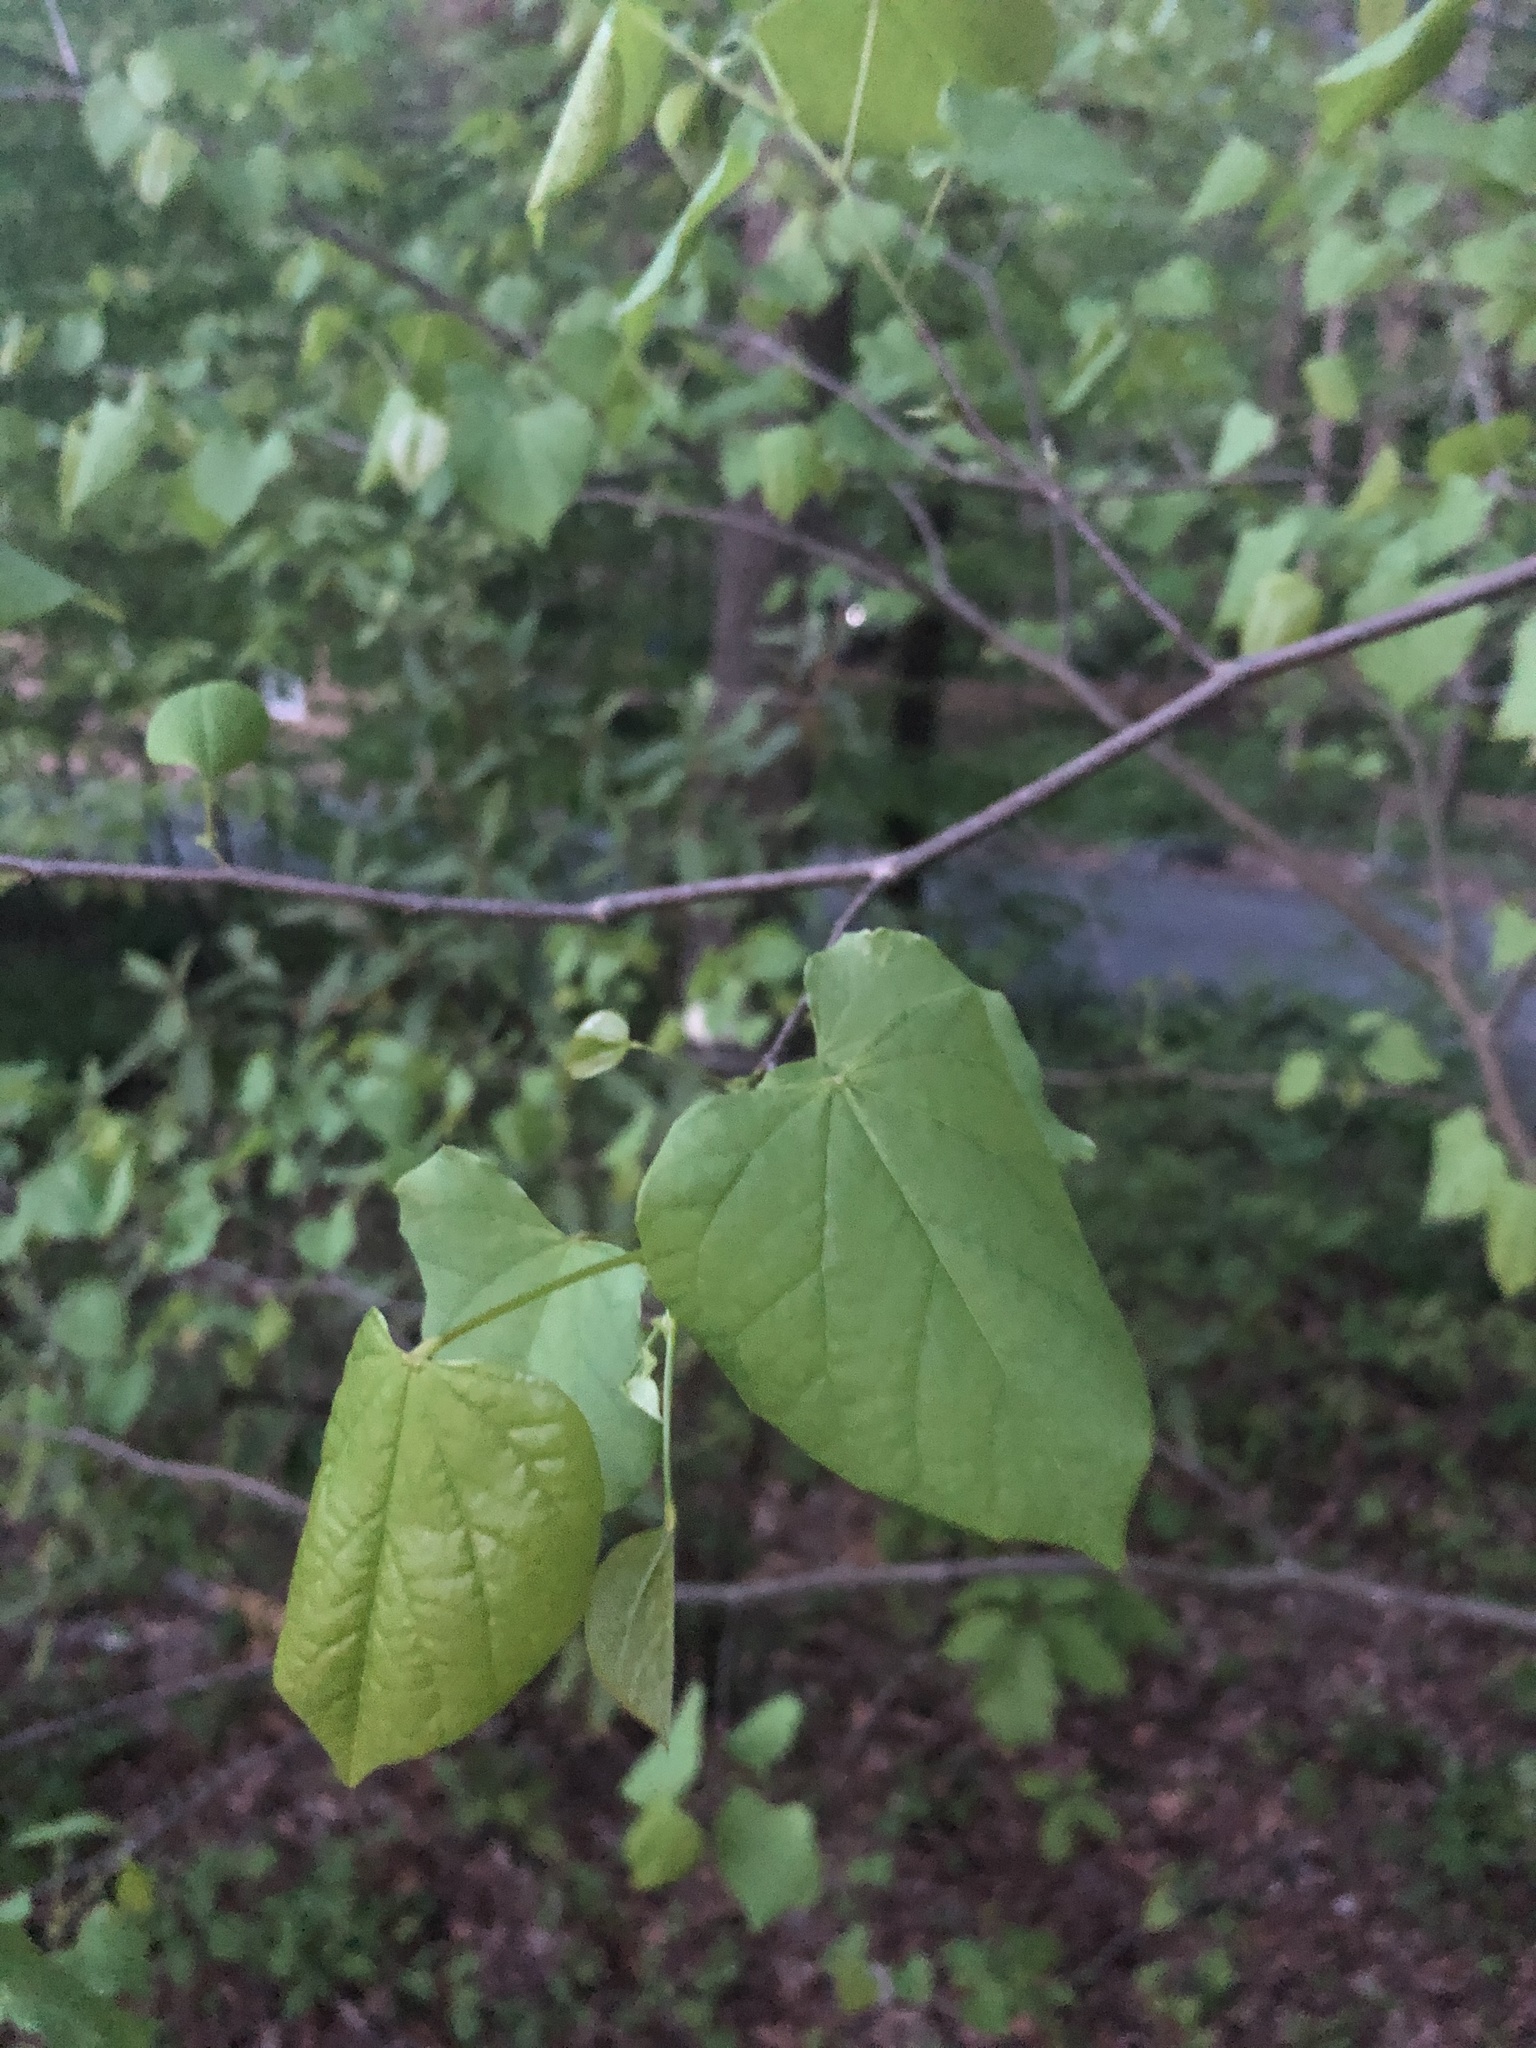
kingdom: Plantae
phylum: Tracheophyta
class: Magnoliopsida
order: Fabales
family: Fabaceae
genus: Cercis
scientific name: Cercis canadensis
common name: Eastern redbud
